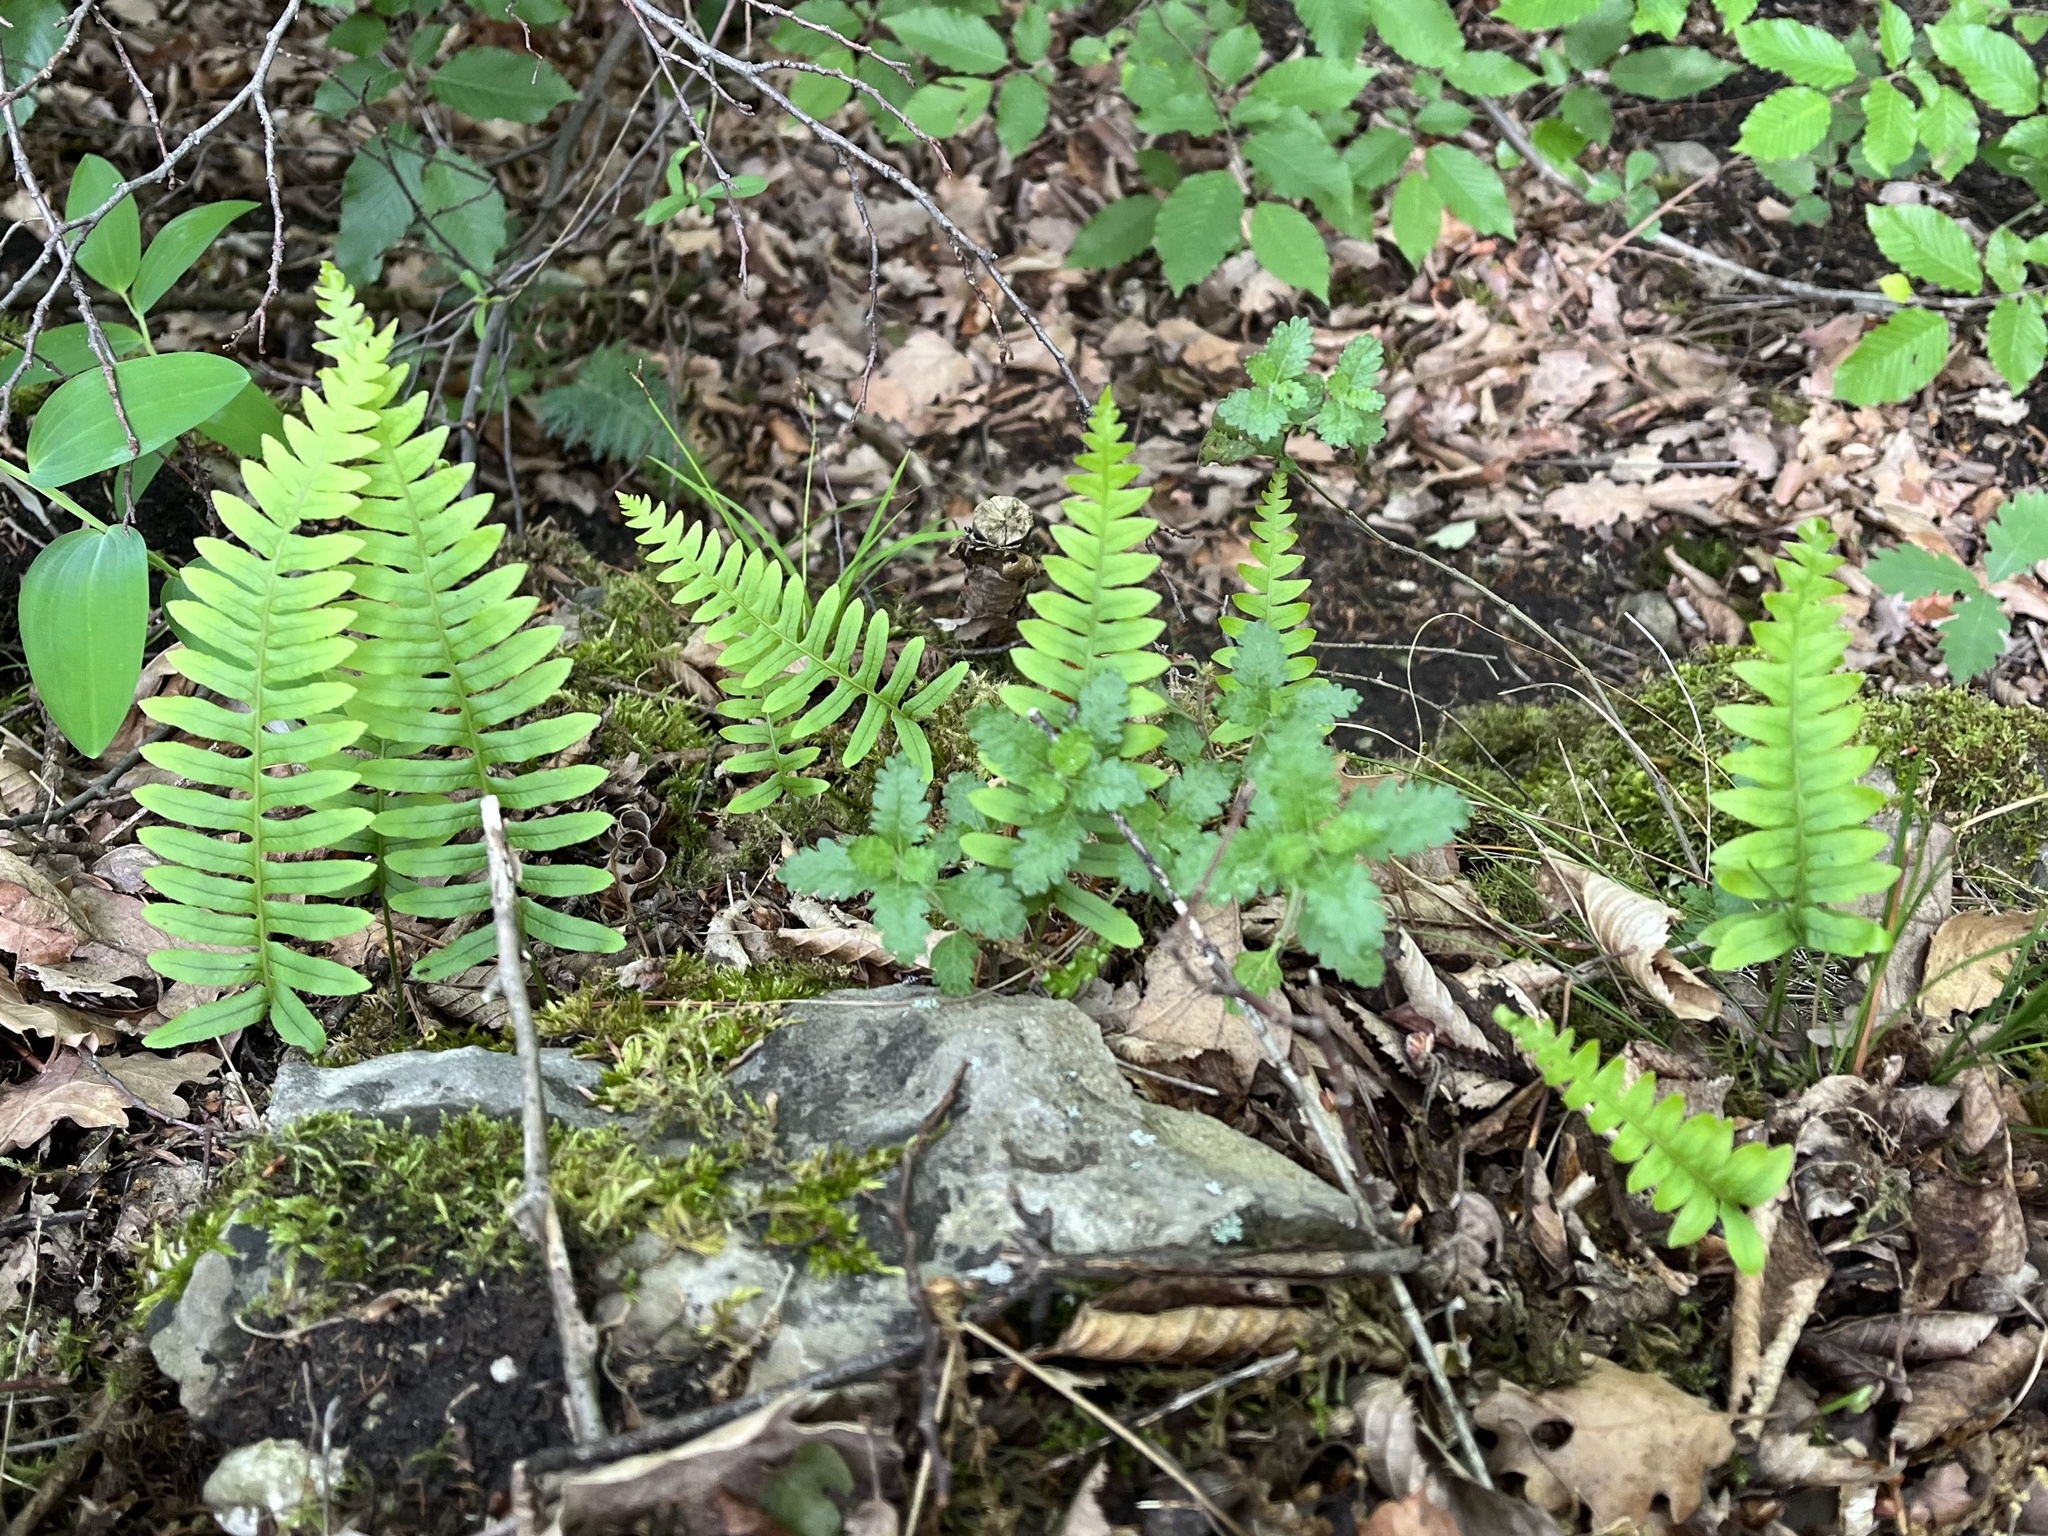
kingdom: Plantae
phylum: Tracheophyta
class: Polypodiopsida
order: Polypodiales
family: Polypodiaceae
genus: Polypodium
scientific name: Polypodium vulgare
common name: Common polypody
